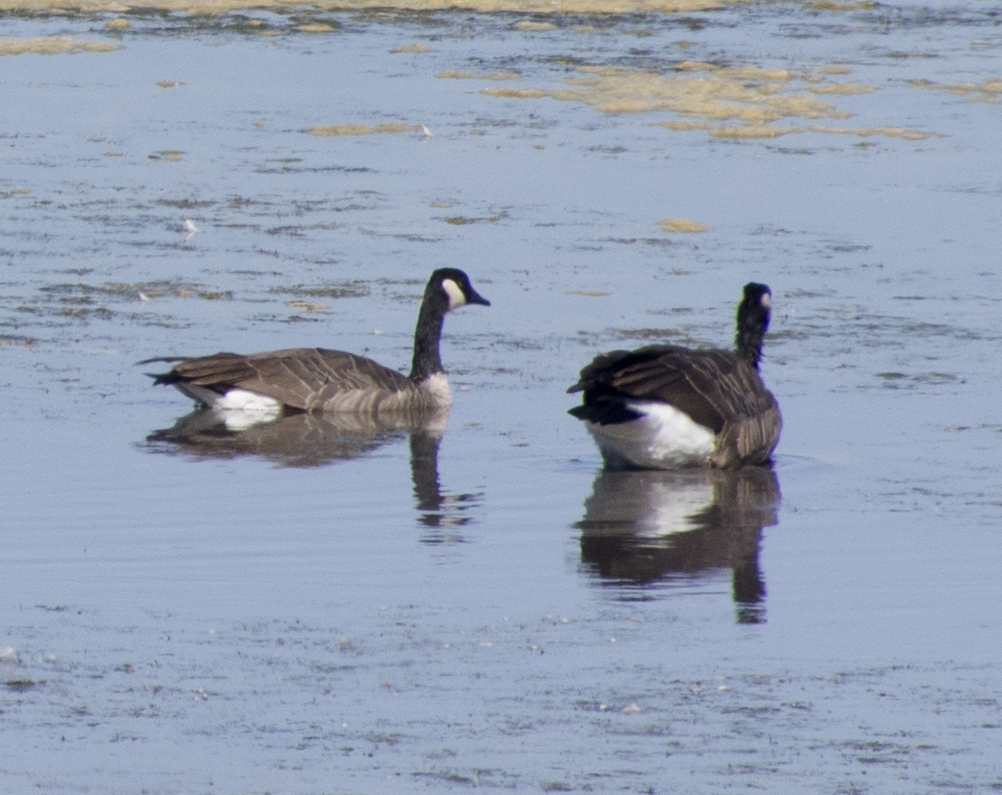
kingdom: Animalia
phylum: Chordata
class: Aves
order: Anseriformes
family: Anatidae
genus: Branta
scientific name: Branta canadensis
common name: Canada goose
